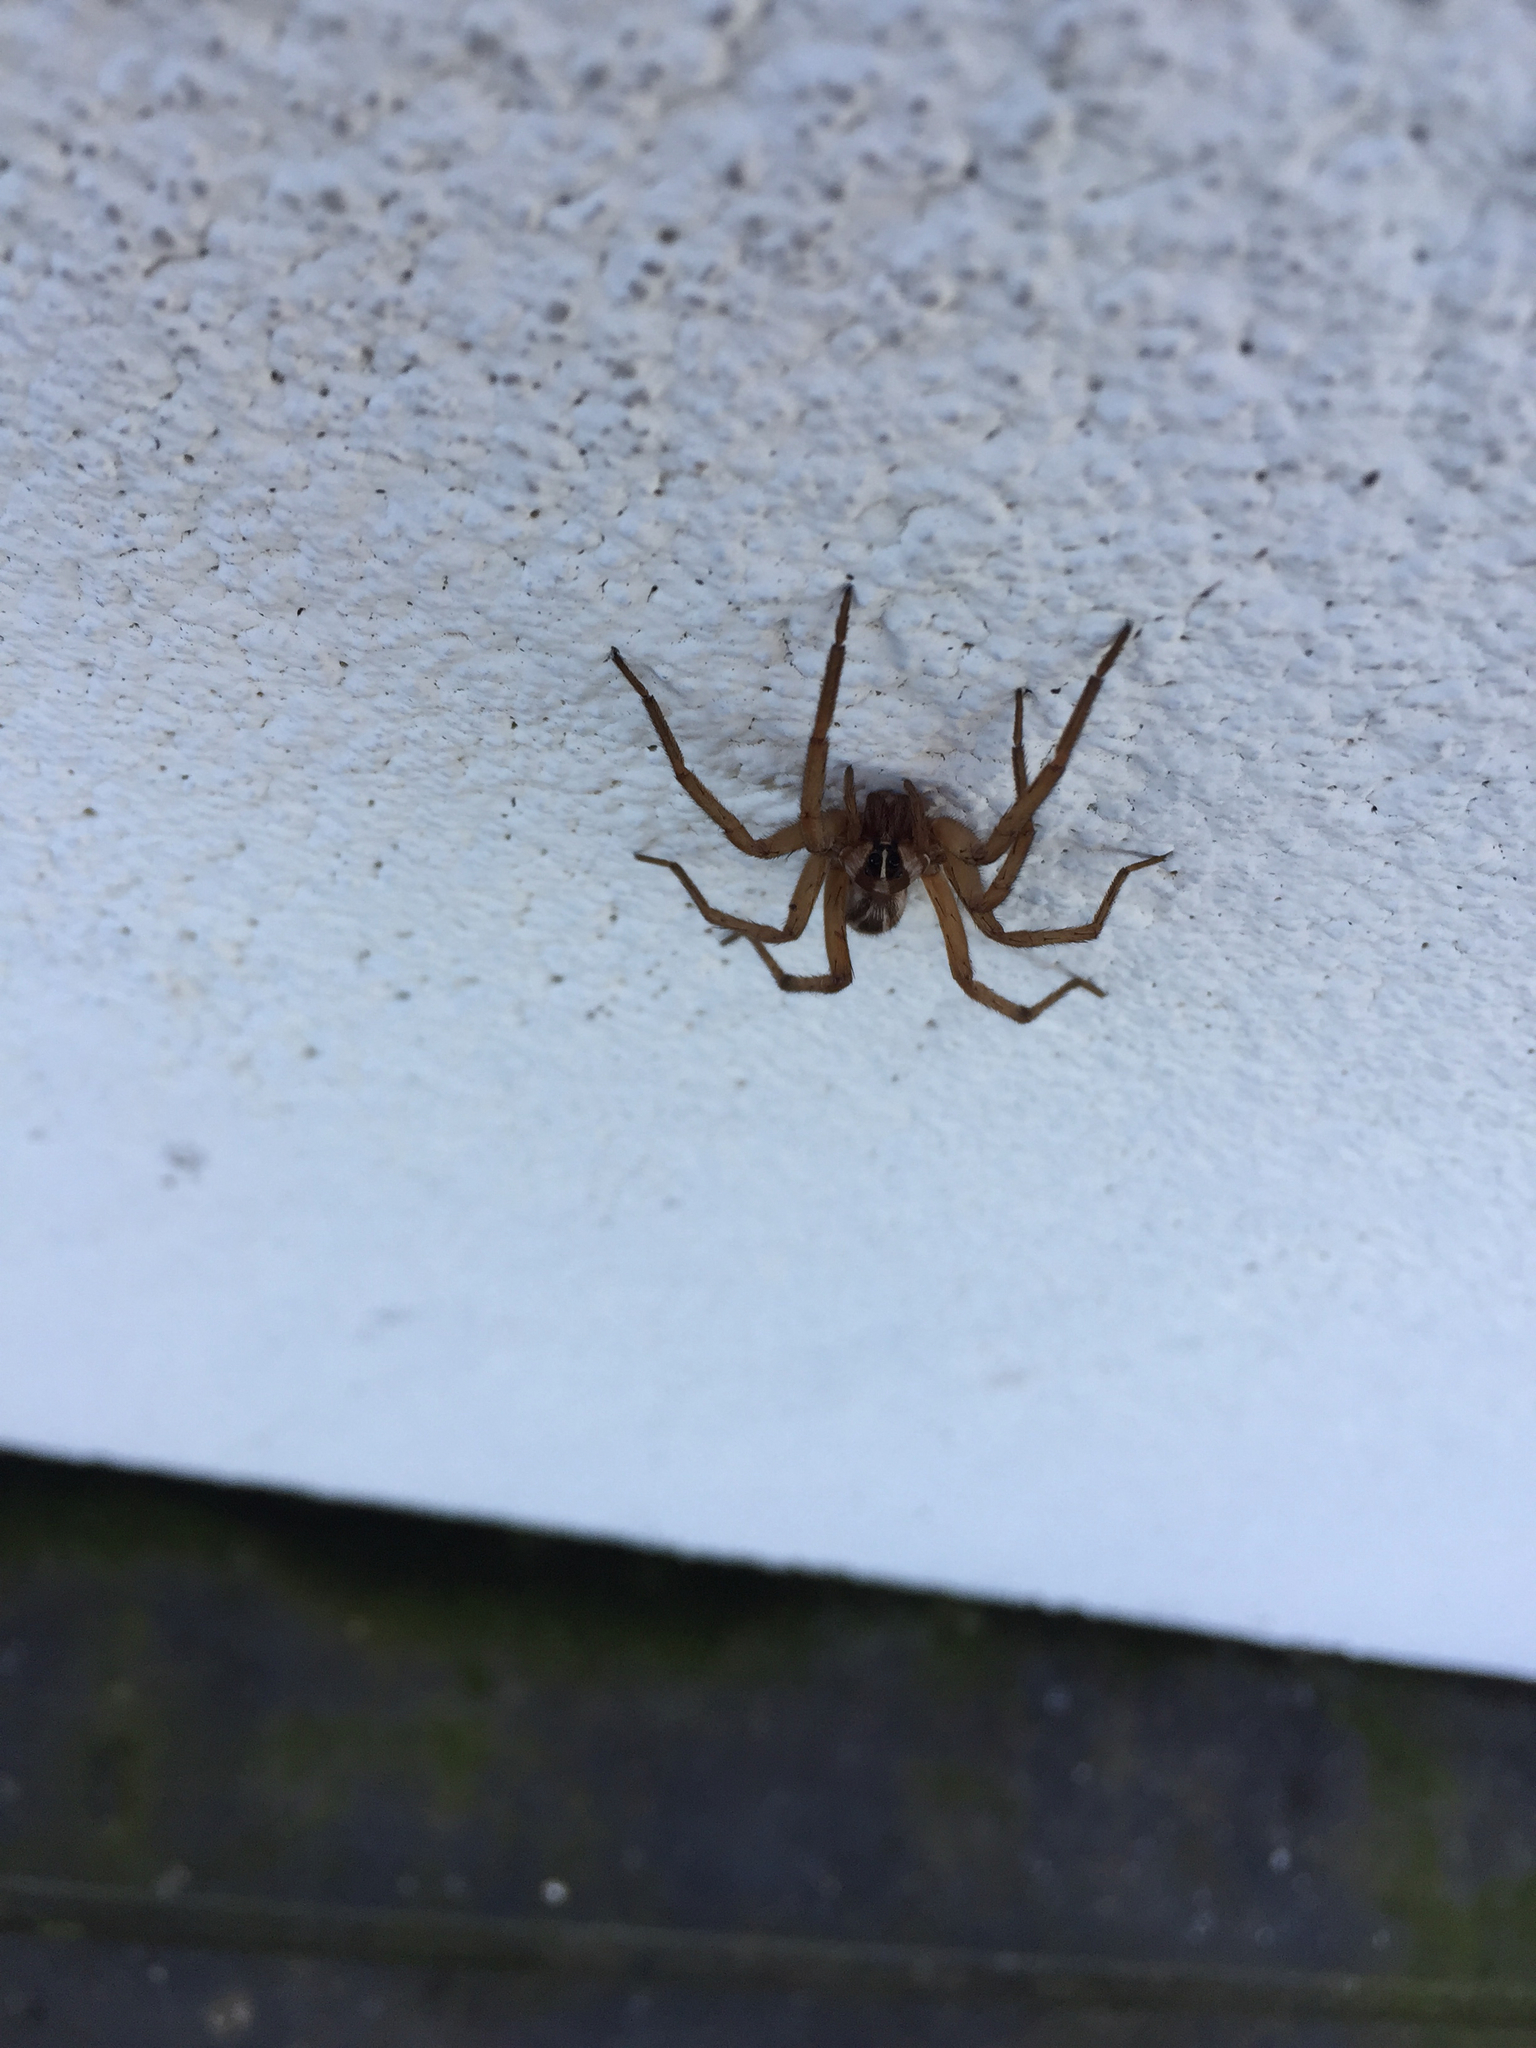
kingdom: Animalia
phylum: Arthropoda
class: Arachnida
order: Araneae
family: Lycosidae
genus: Rabidosa
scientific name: Rabidosa
